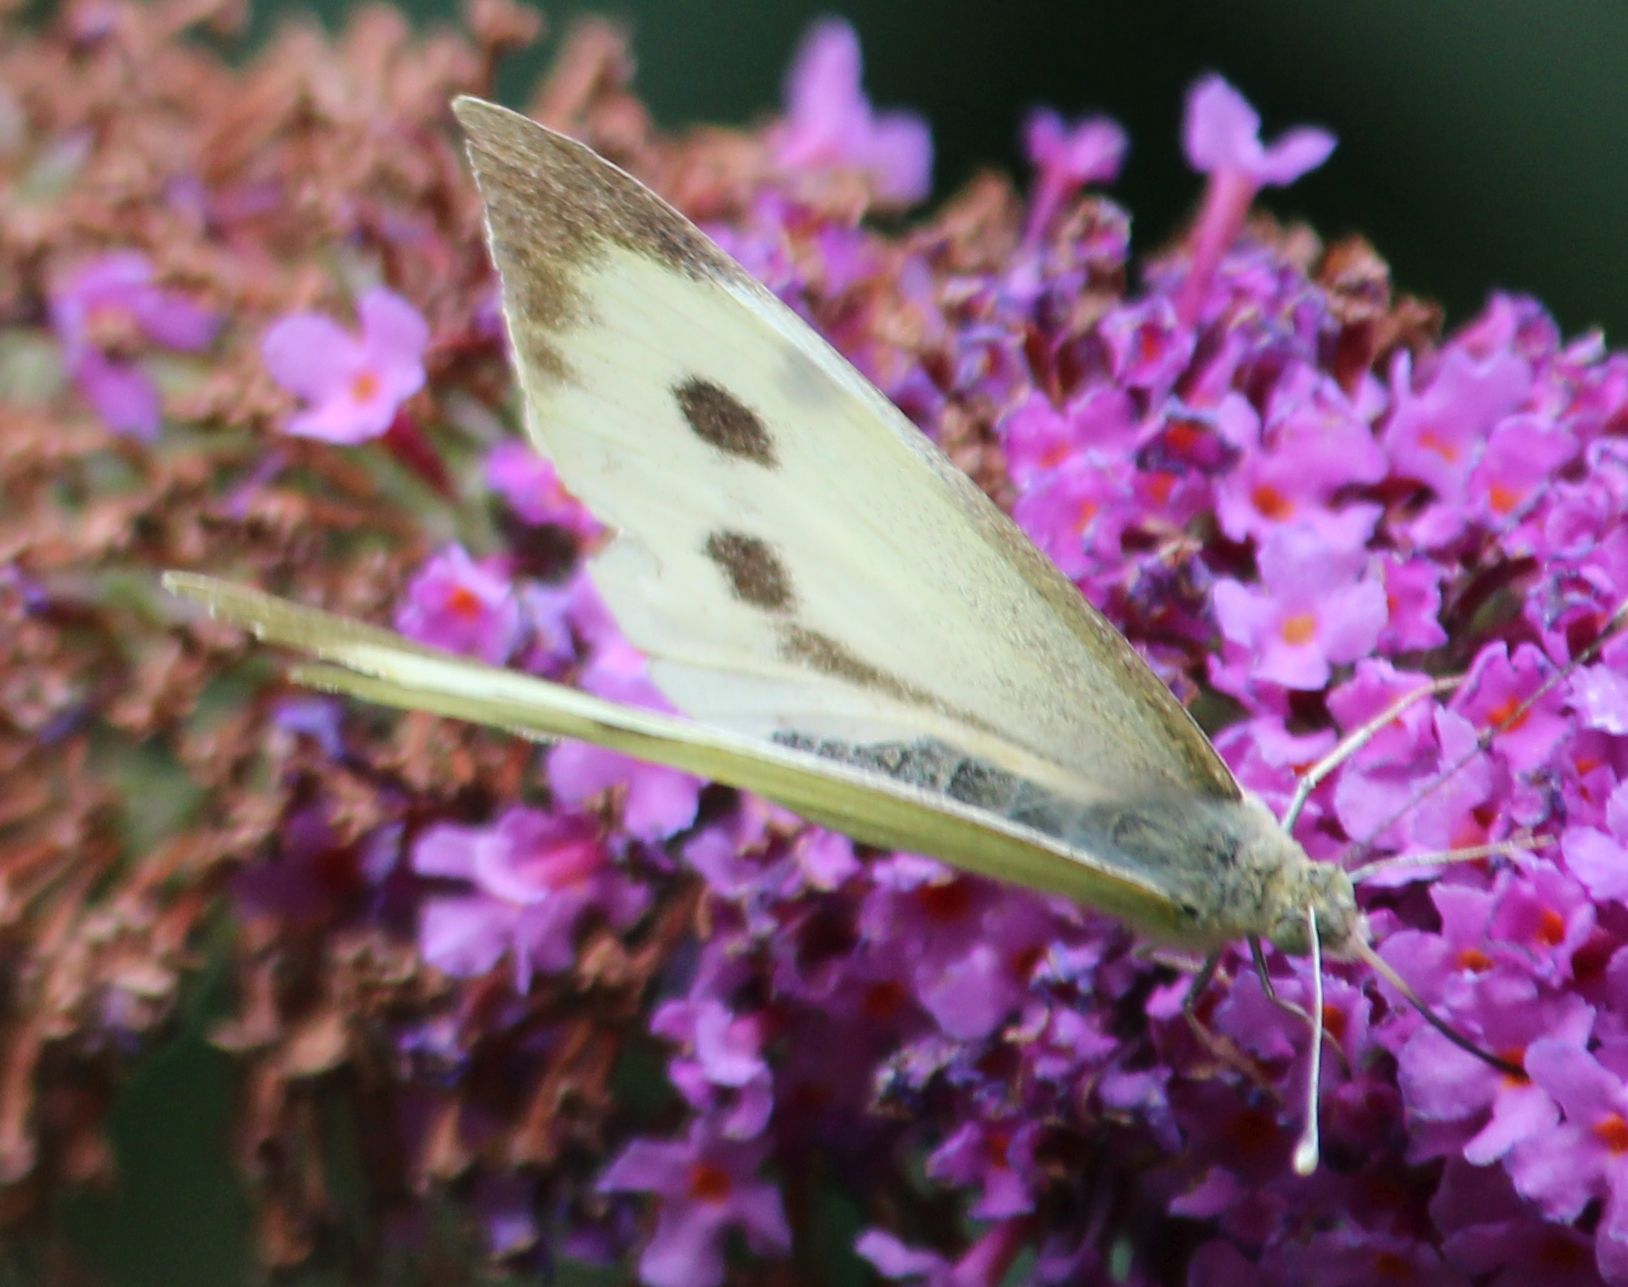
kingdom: Animalia
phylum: Arthropoda
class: Insecta
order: Lepidoptera
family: Pieridae
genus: Pieris
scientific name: Pieris brassicae
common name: Large white
